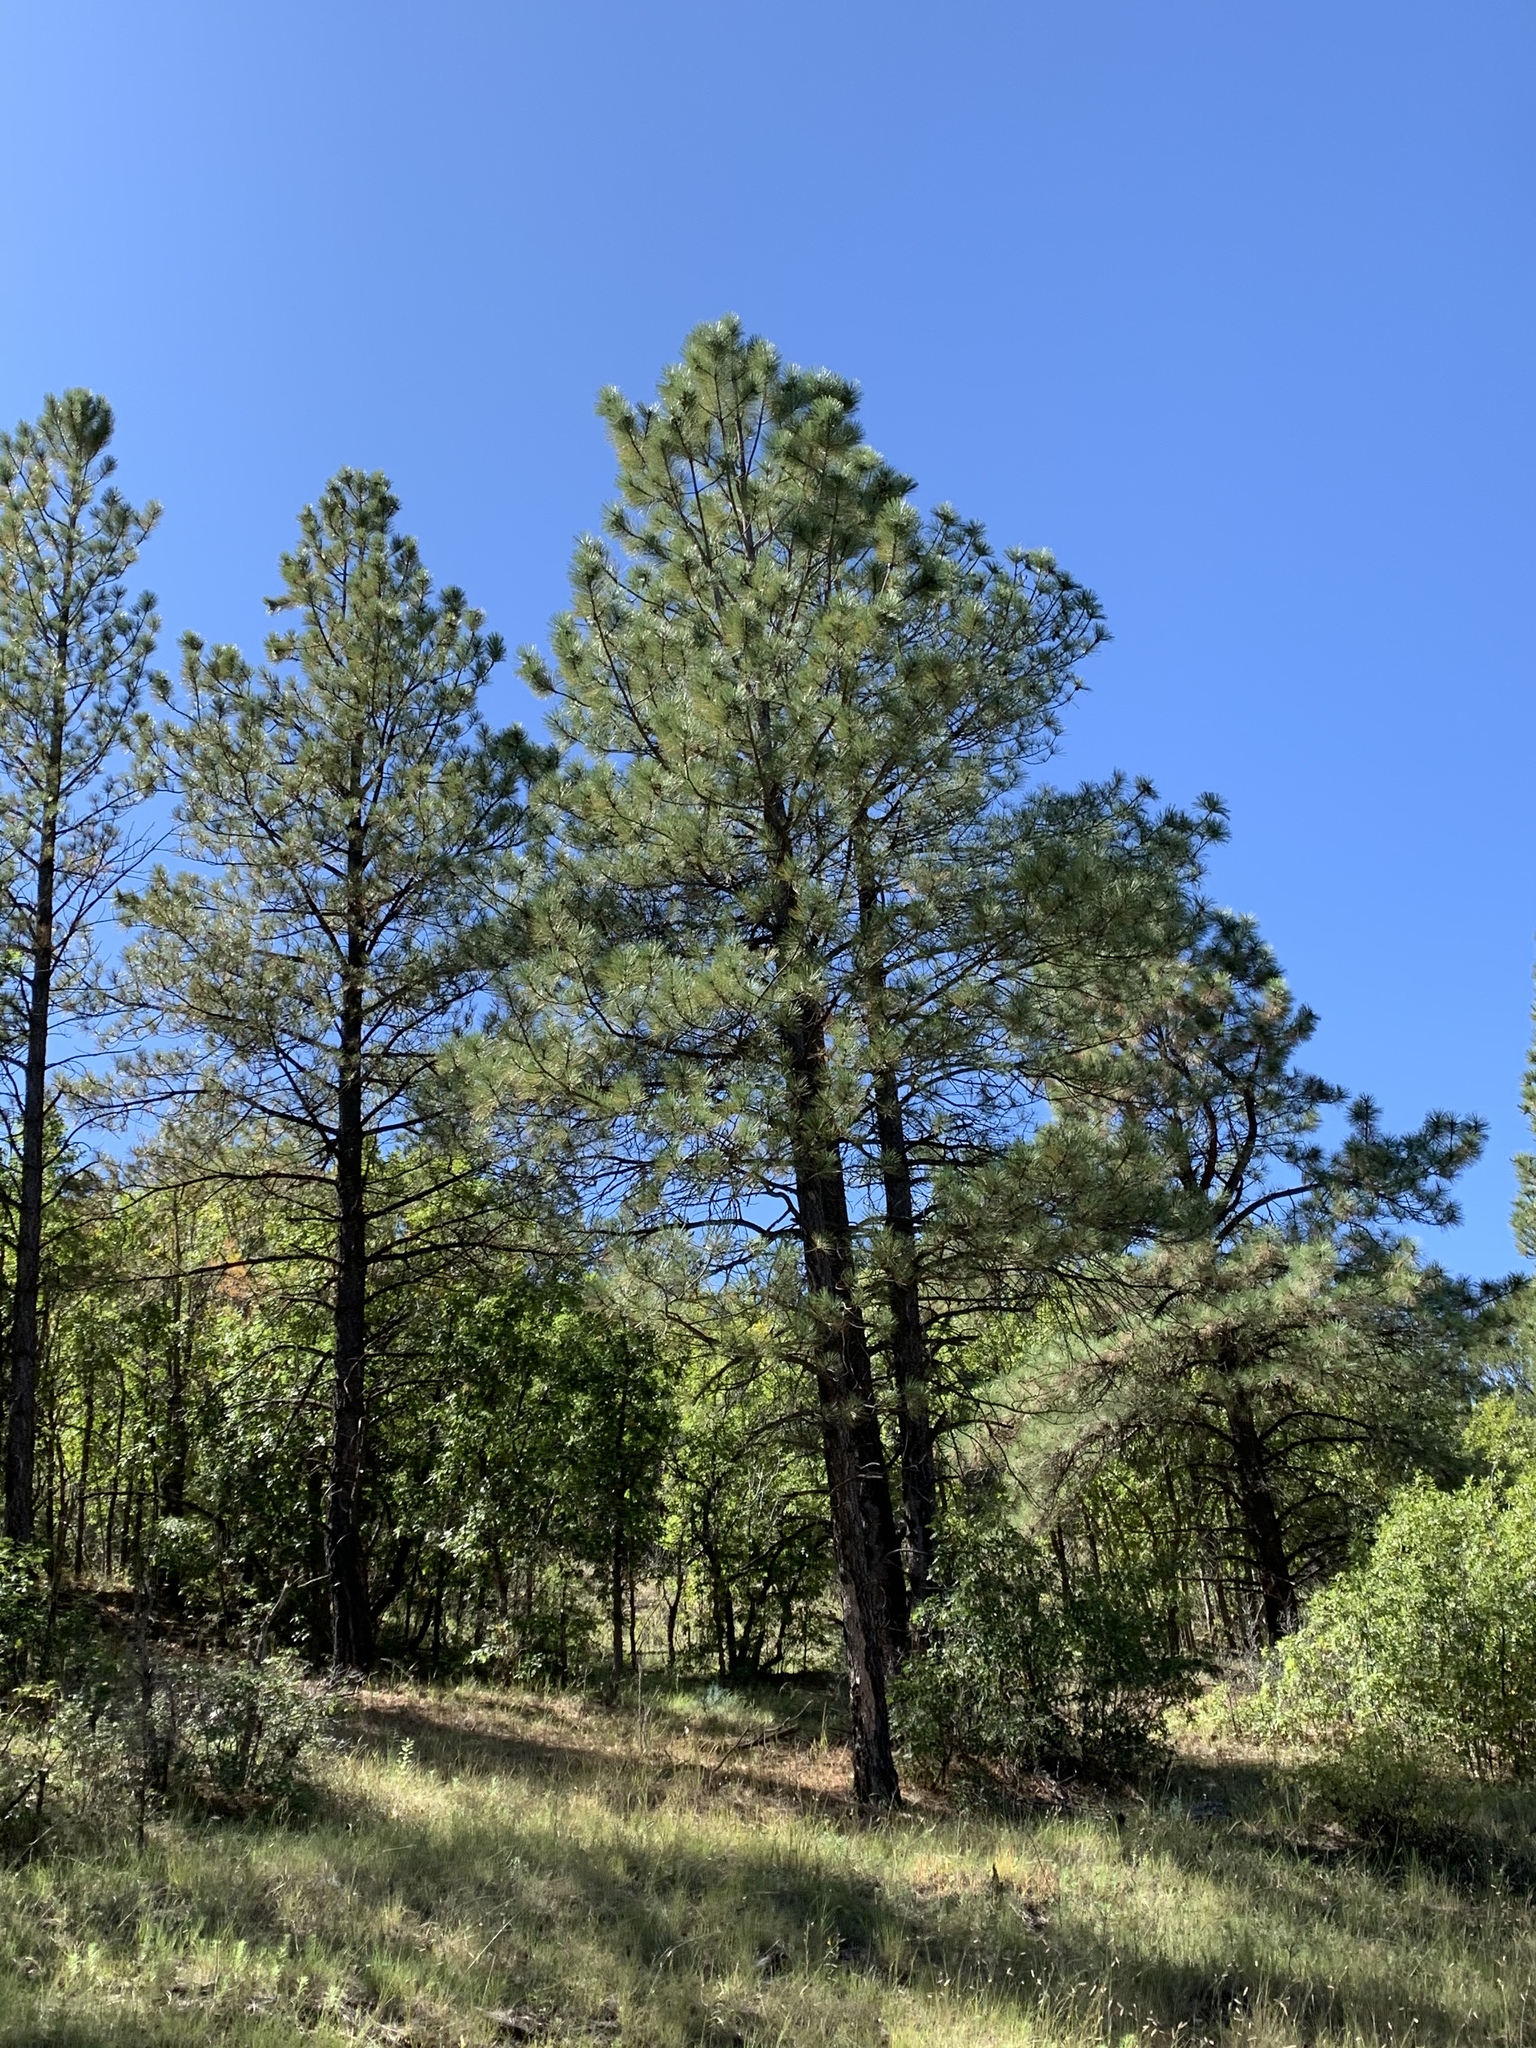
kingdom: Plantae
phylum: Tracheophyta
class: Pinopsida
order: Pinales
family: Pinaceae
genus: Pinus
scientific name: Pinus ponderosa
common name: Western yellow-pine
